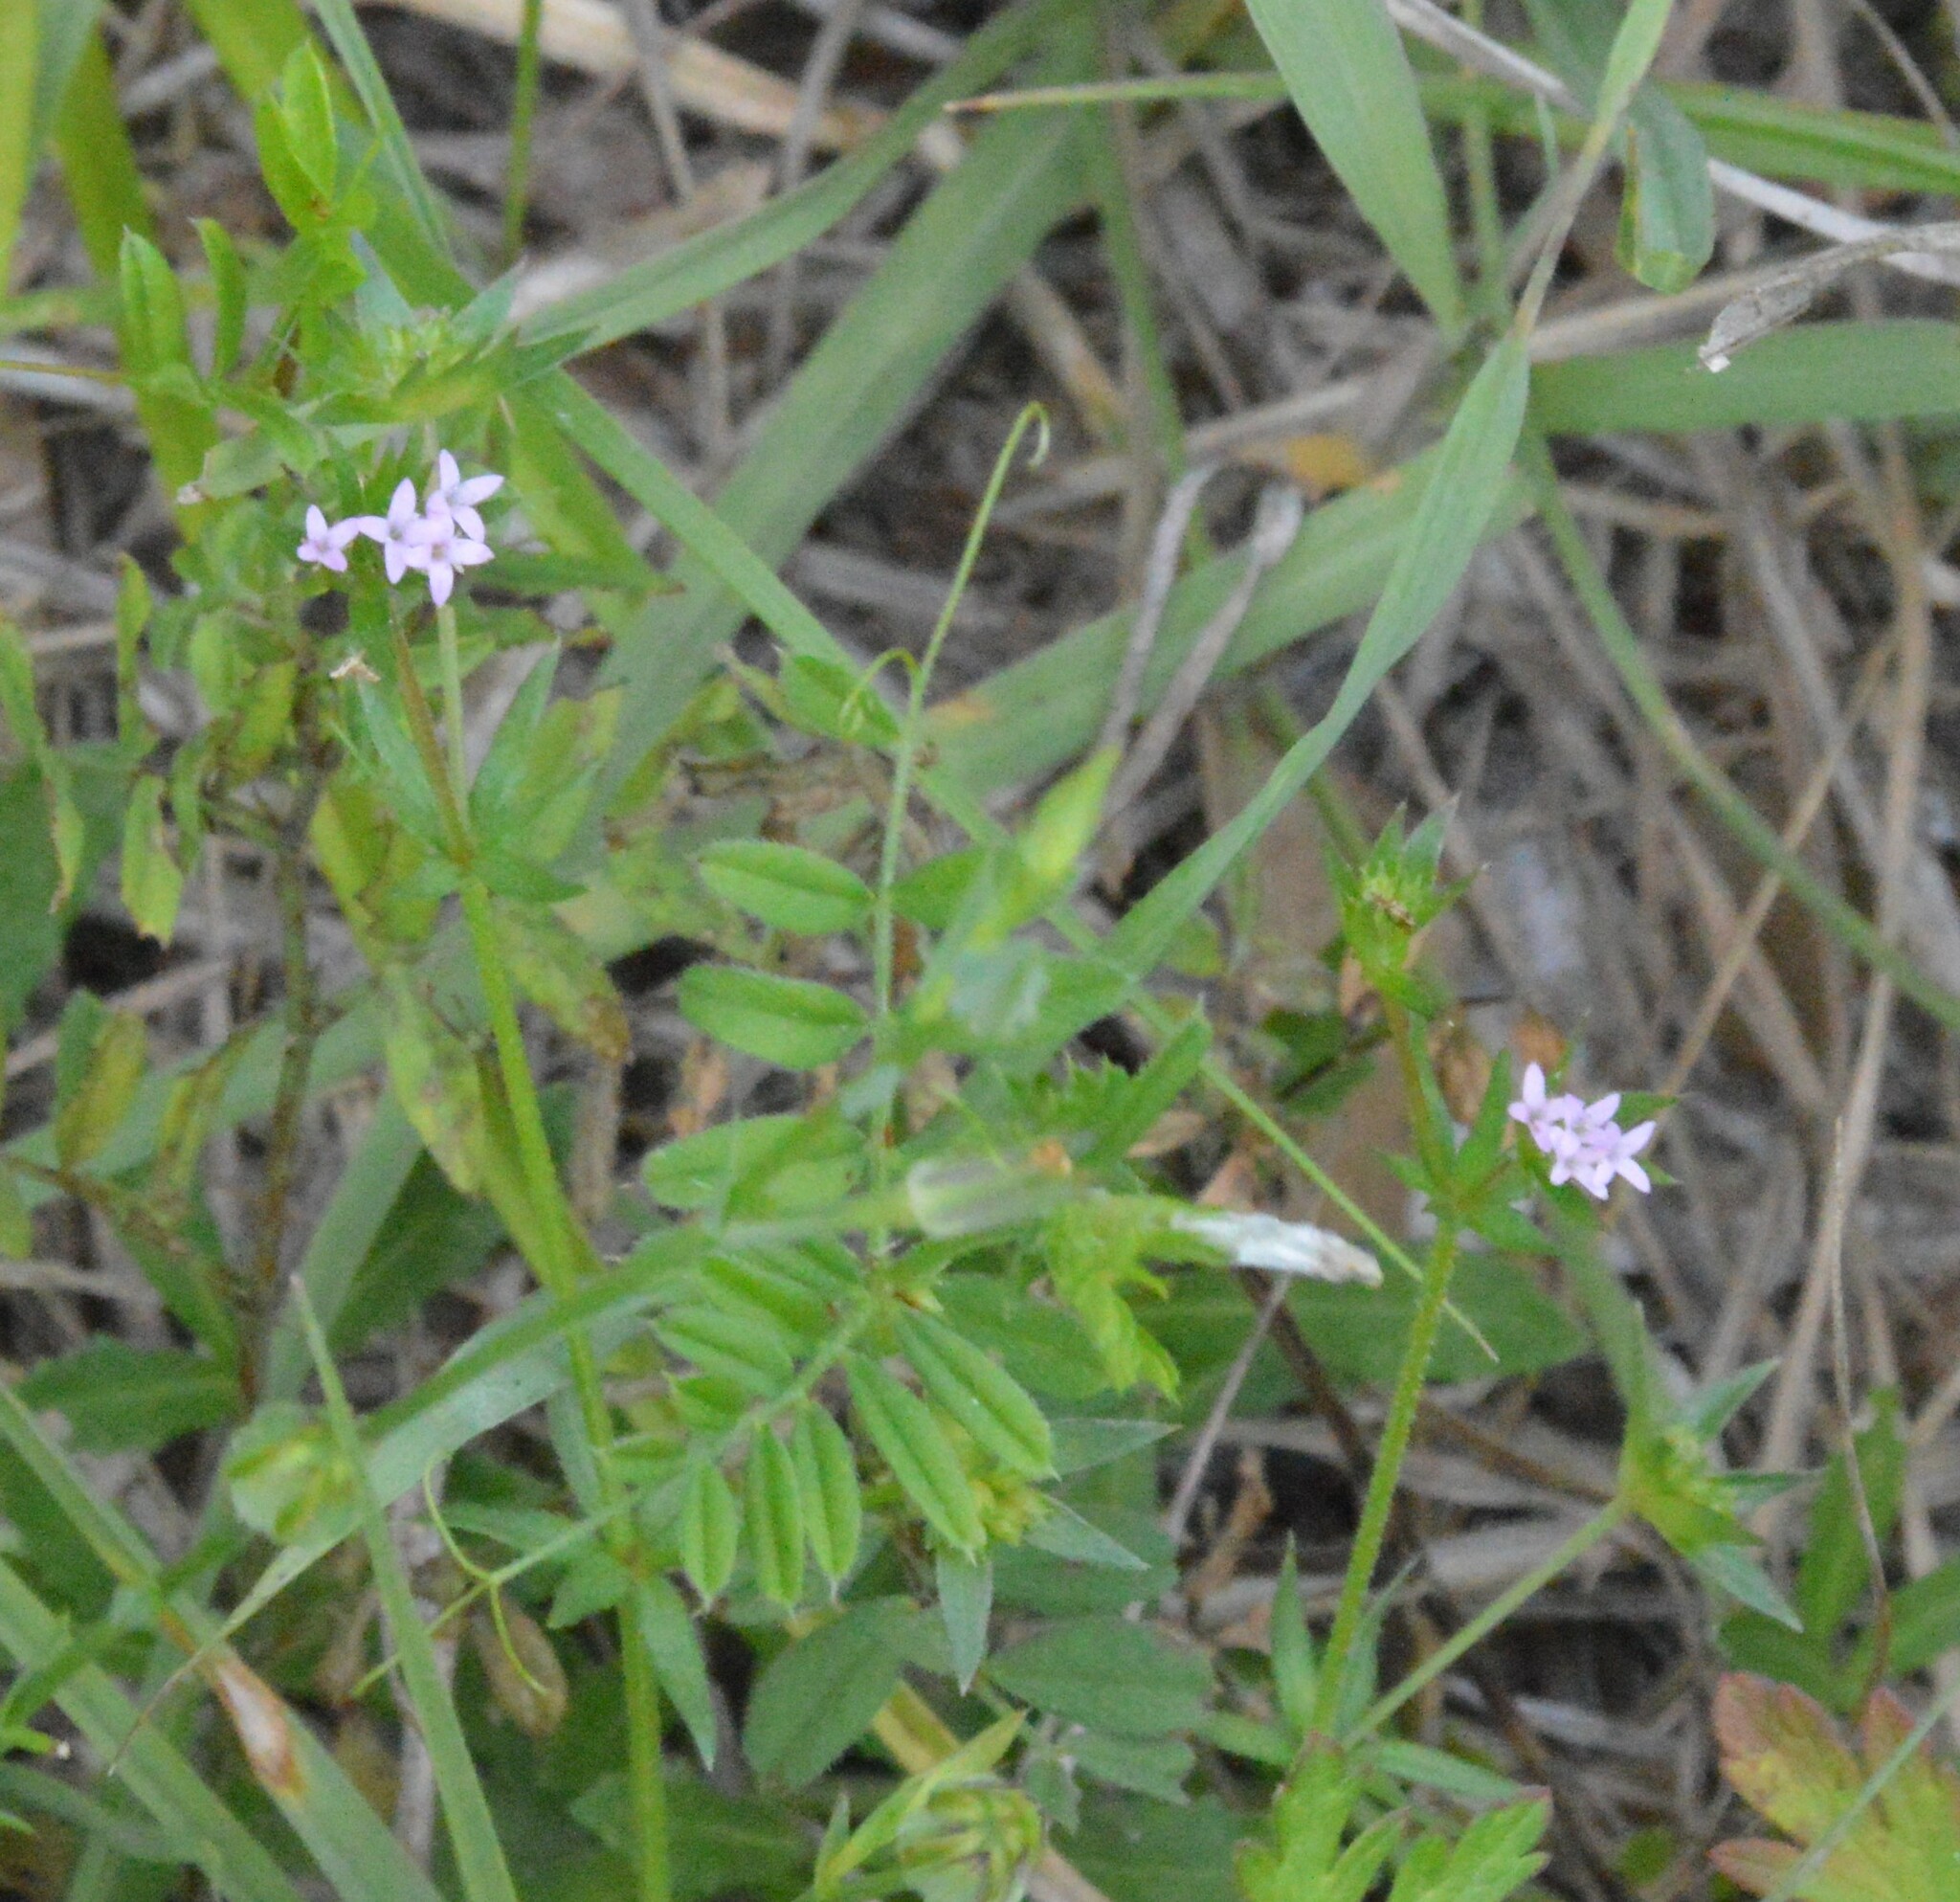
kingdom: Plantae
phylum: Tracheophyta
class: Magnoliopsida
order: Gentianales
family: Rubiaceae
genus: Sherardia
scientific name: Sherardia arvensis
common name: Field madder
